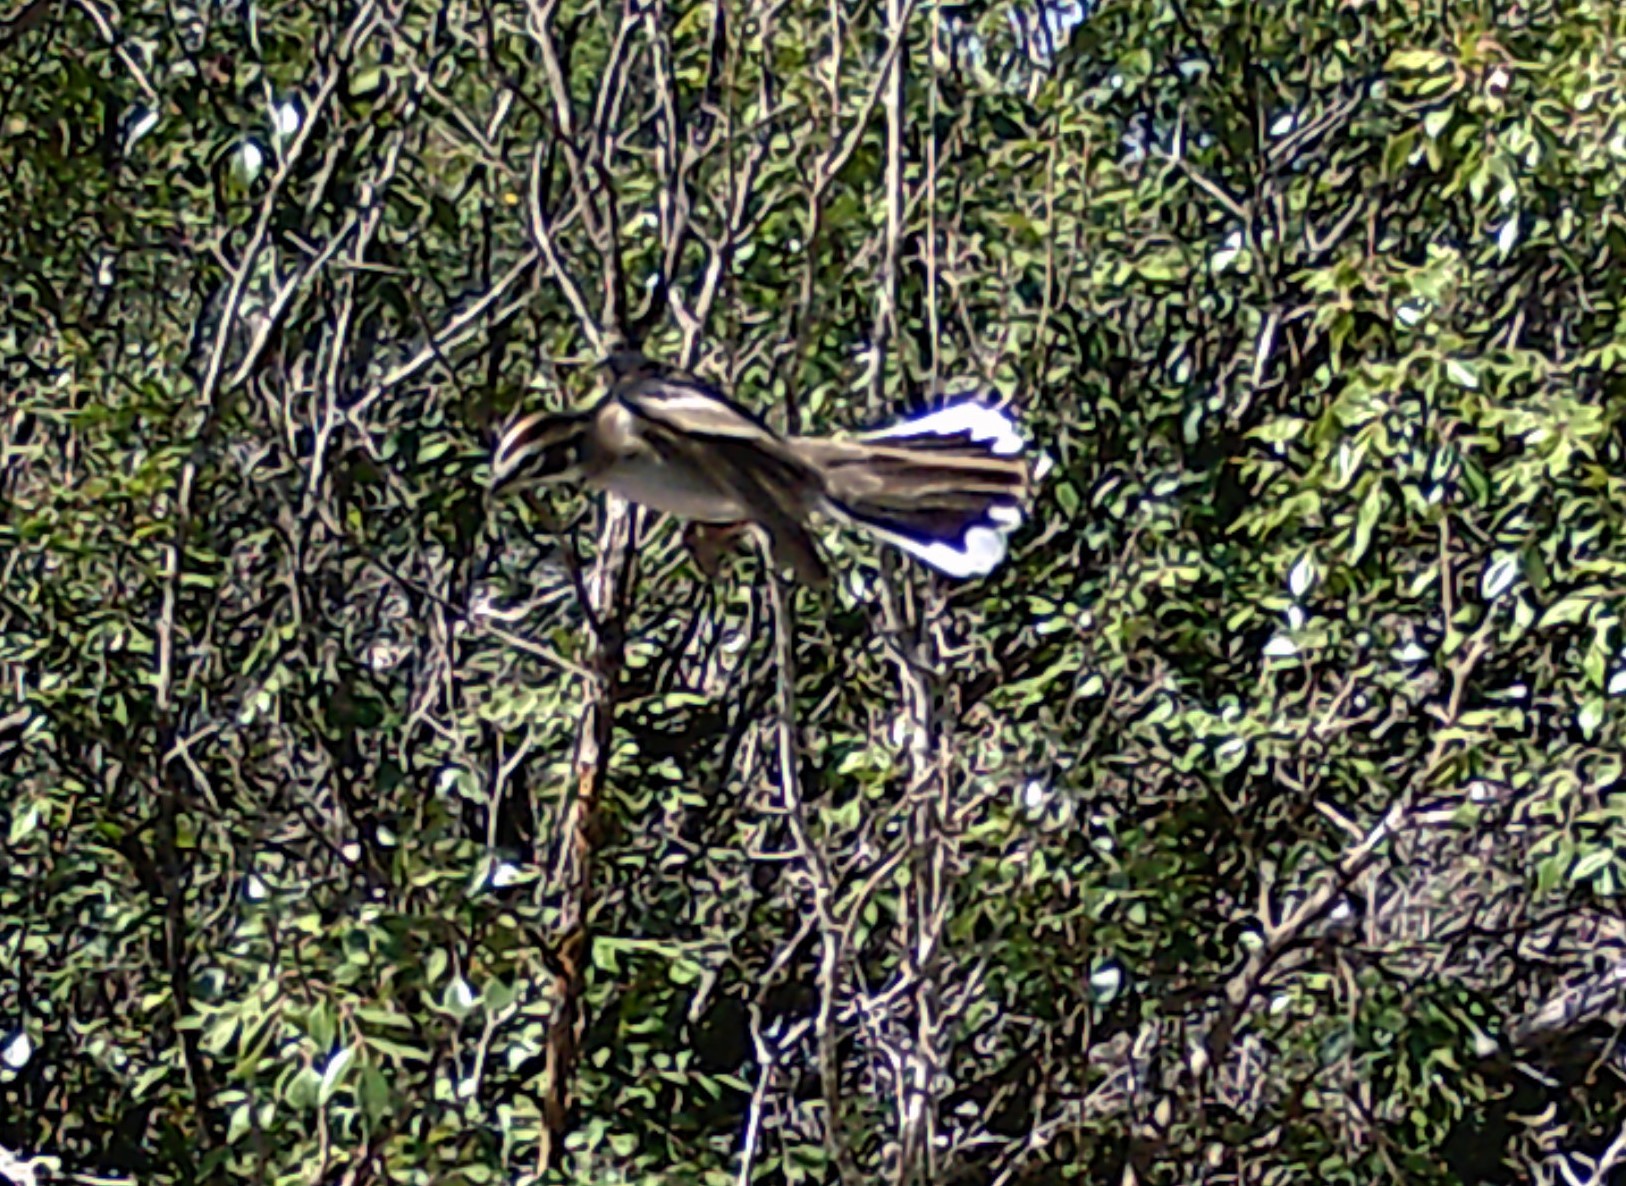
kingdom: Animalia
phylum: Chordata
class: Aves
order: Passeriformes
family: Passerellidae
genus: Chondestes
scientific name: Chondestes grammacus
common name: Lark sparrow
